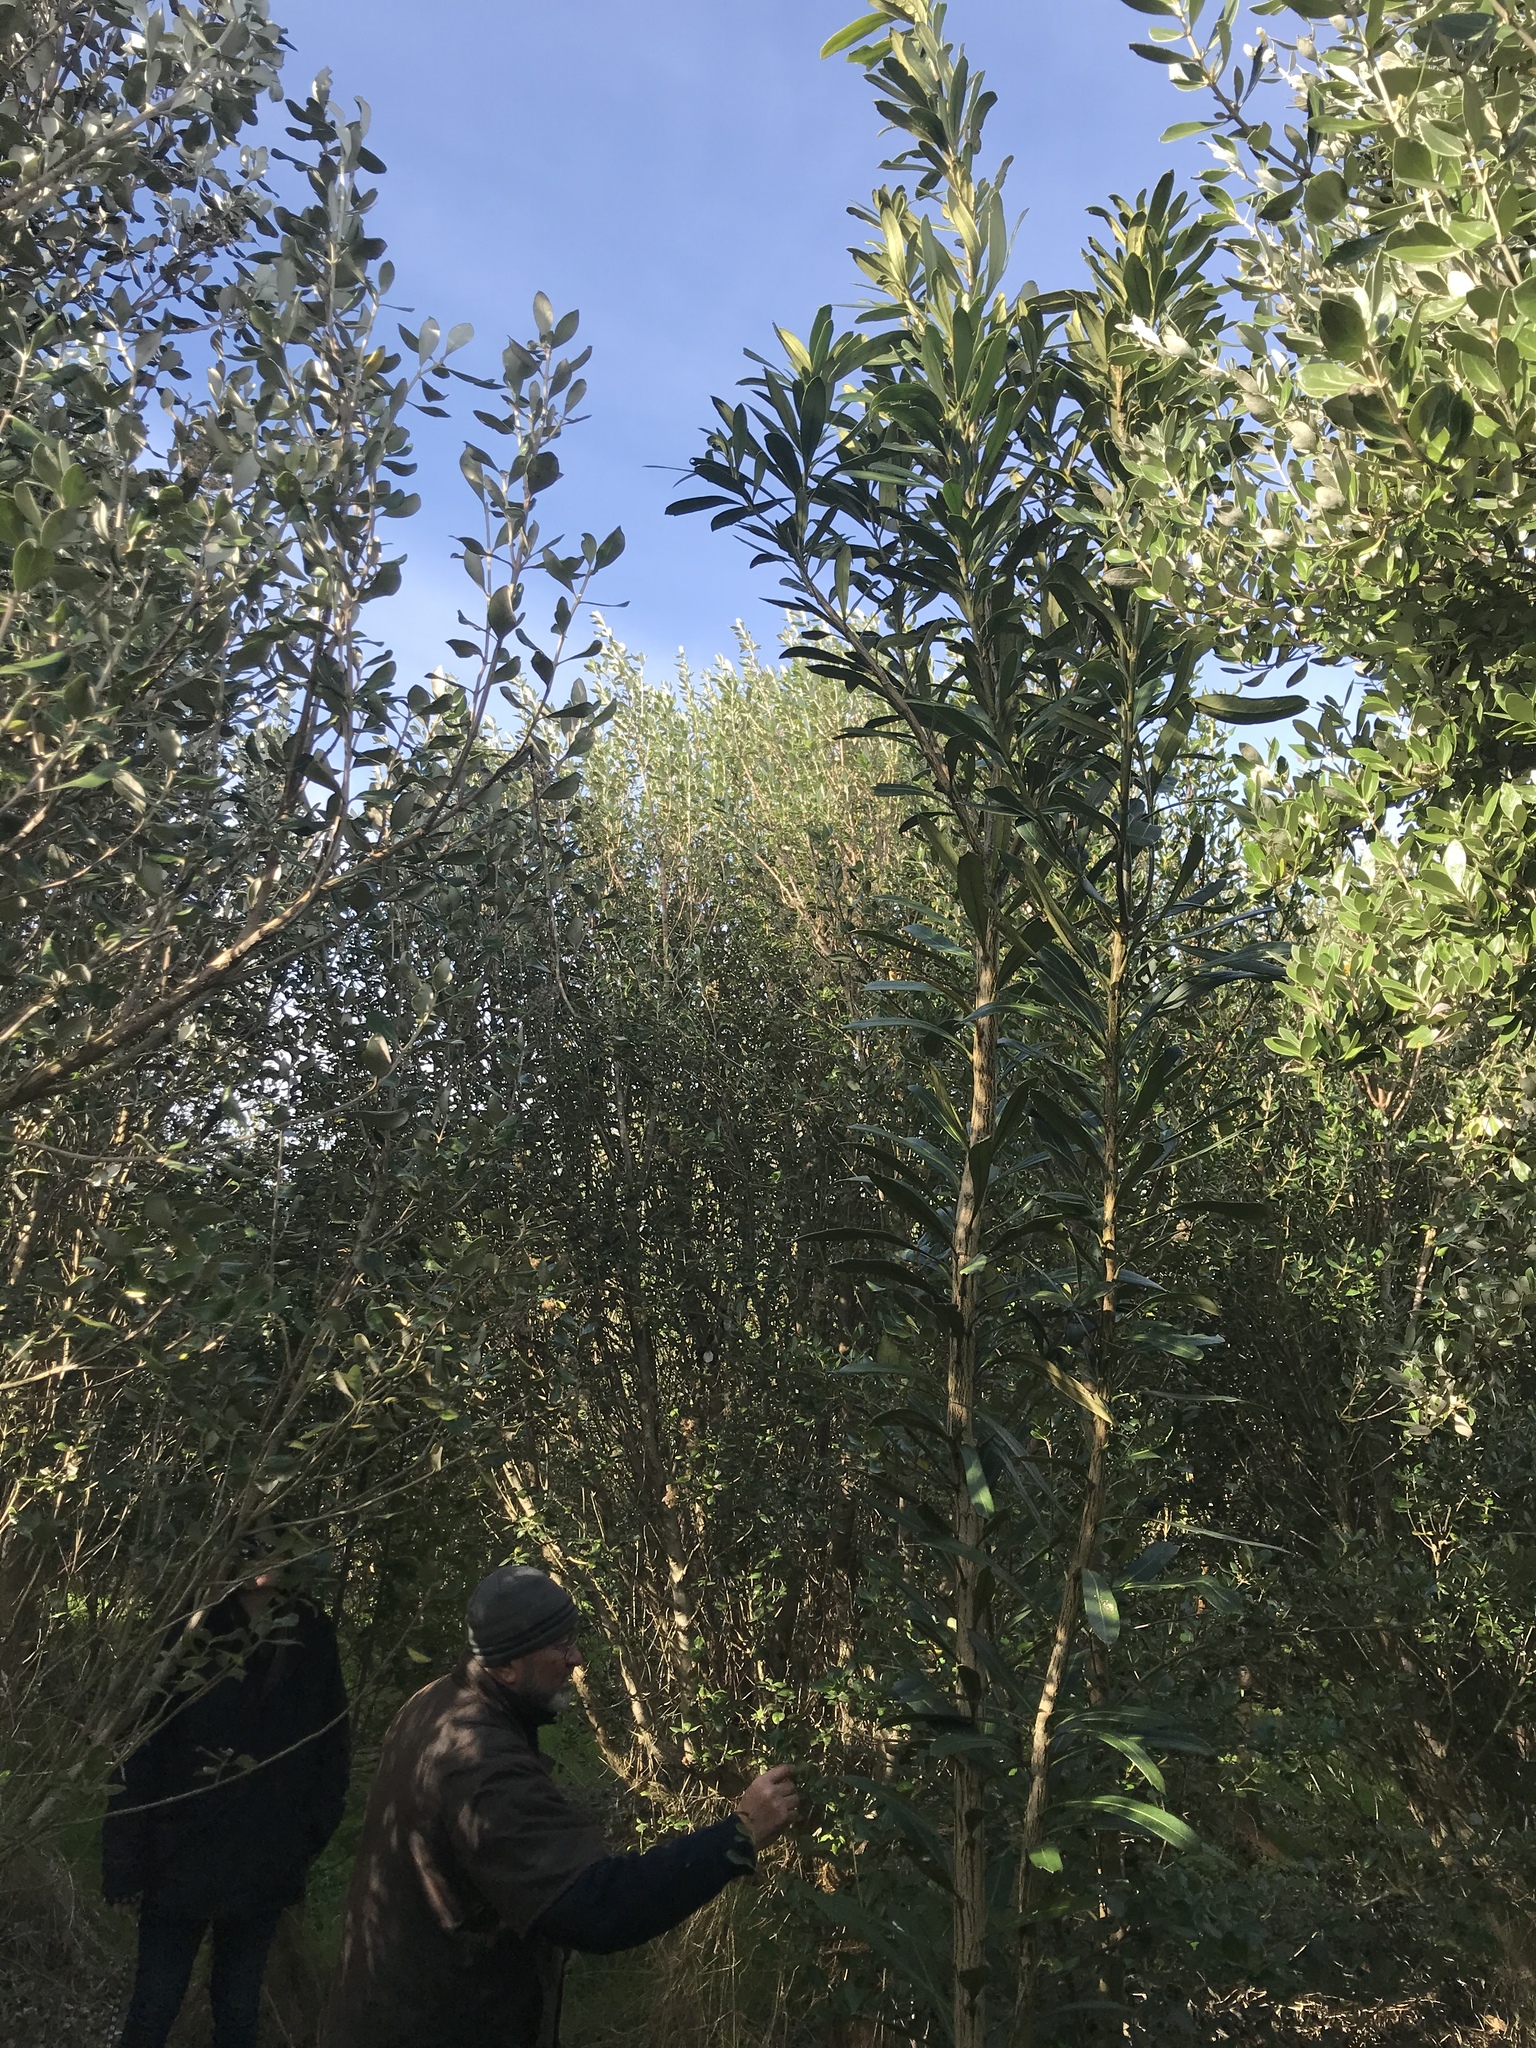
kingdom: Plantae
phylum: Tracheophyta
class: Magnoliopsida
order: Apiales
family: Araliaceae
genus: Pseudopanax
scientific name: Pseudopanax chathamicus
